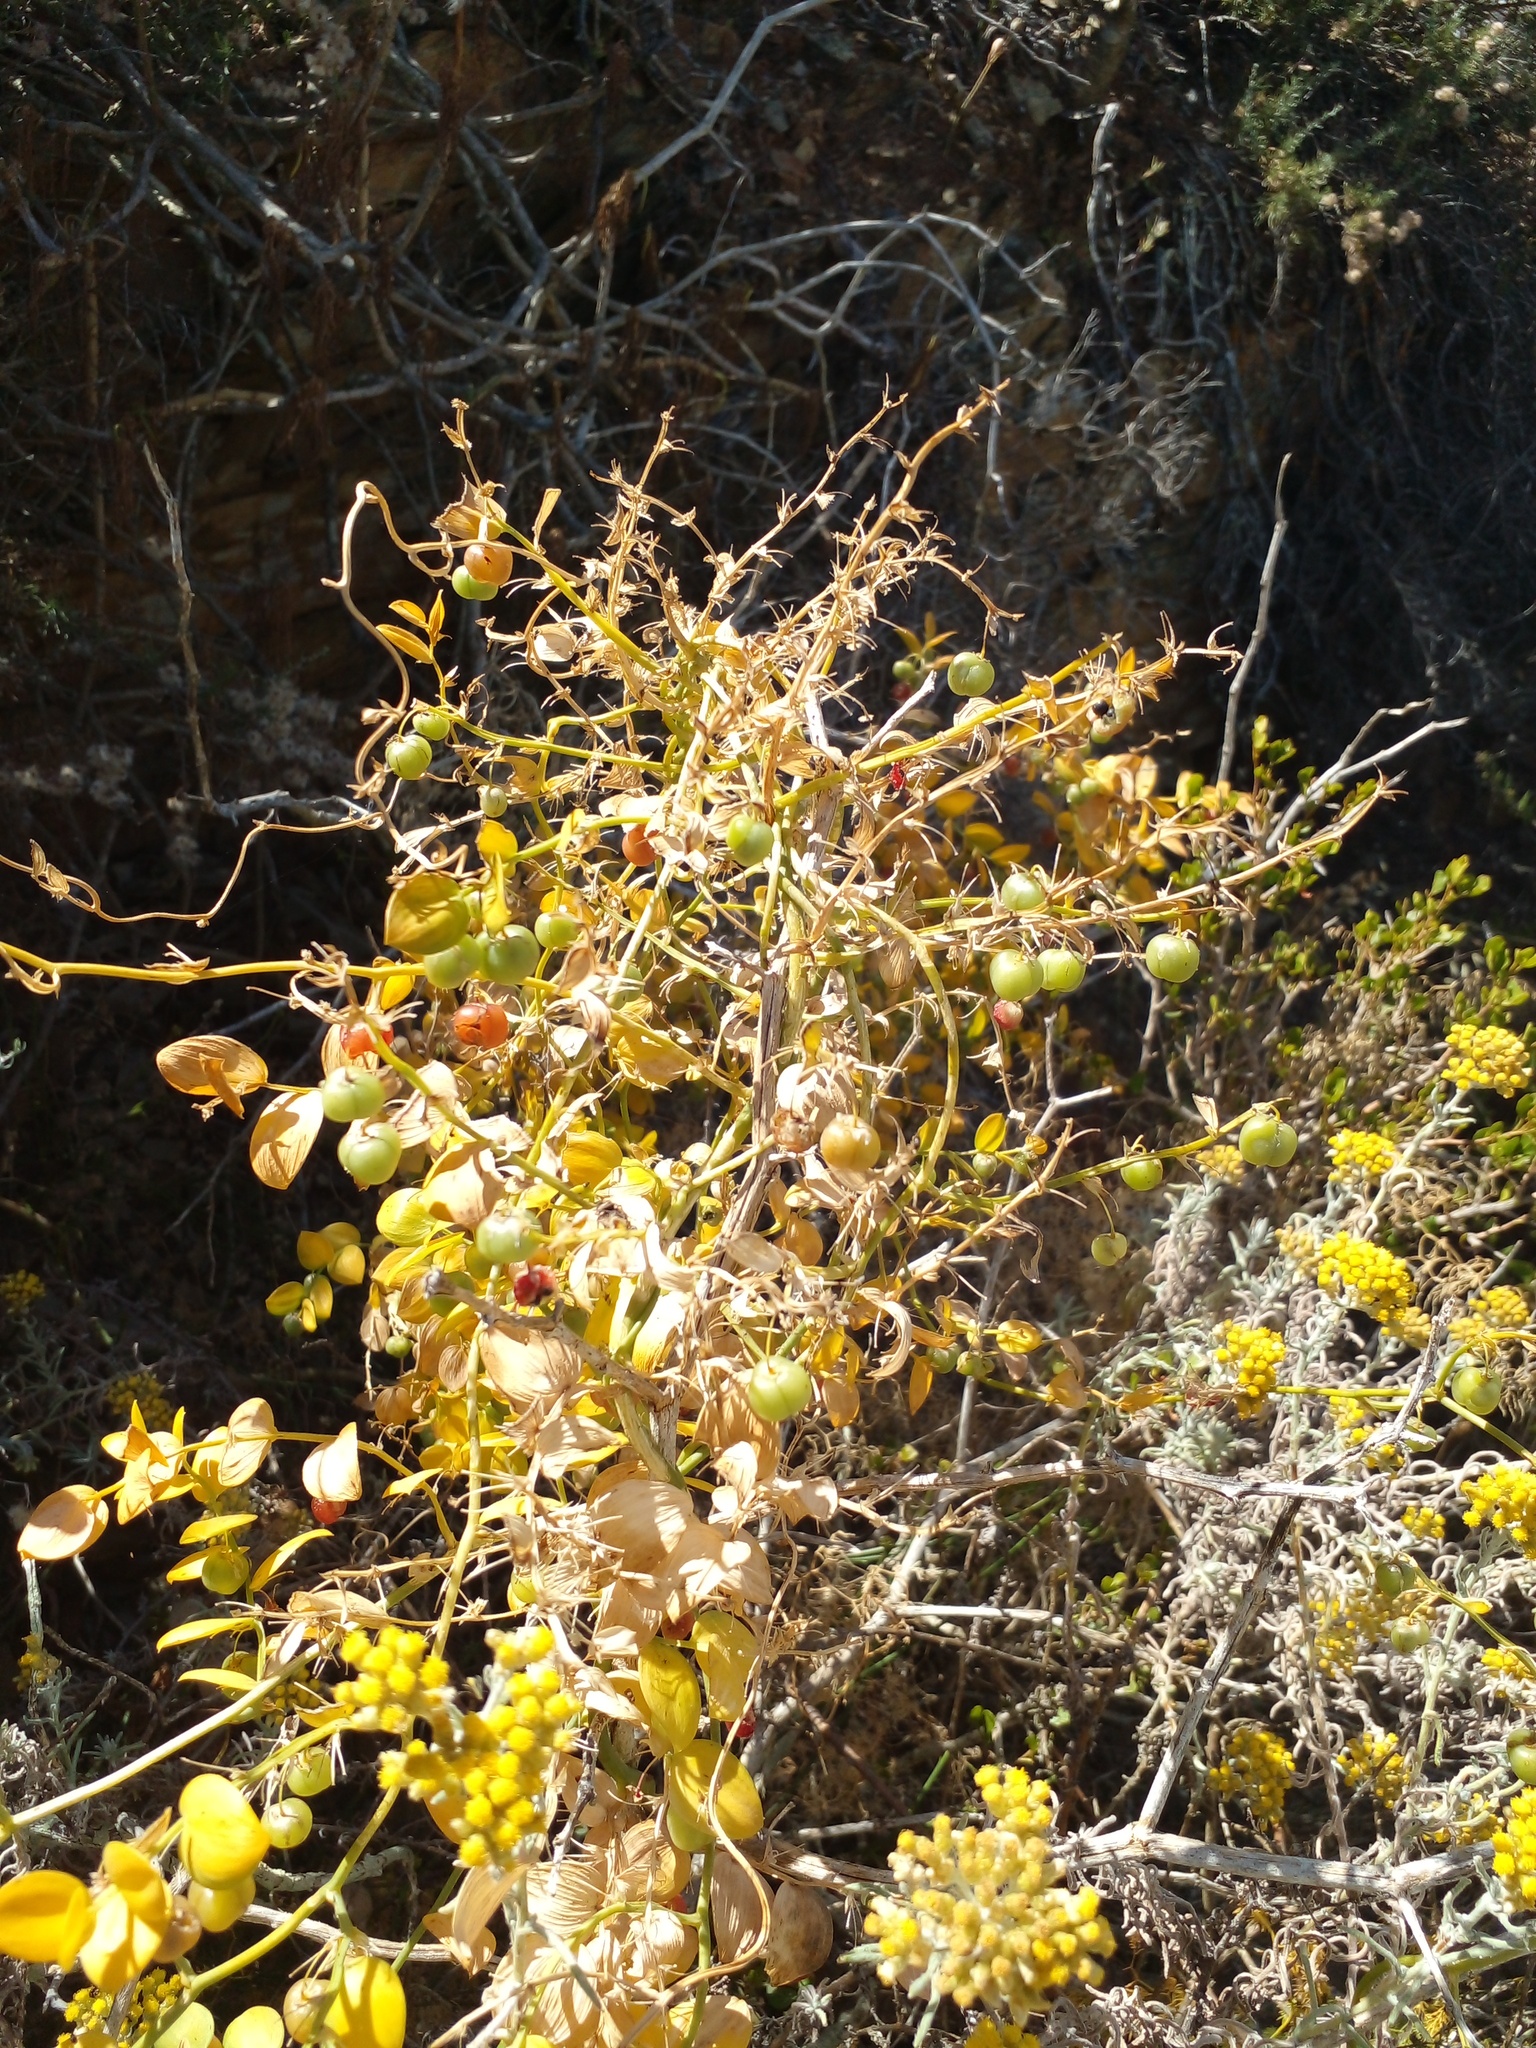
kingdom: Plantae
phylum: Tracheophyta
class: Liliopsida
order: Asparagales
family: Asparagaceae
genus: Asparagus
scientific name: Asparagus ovatus
